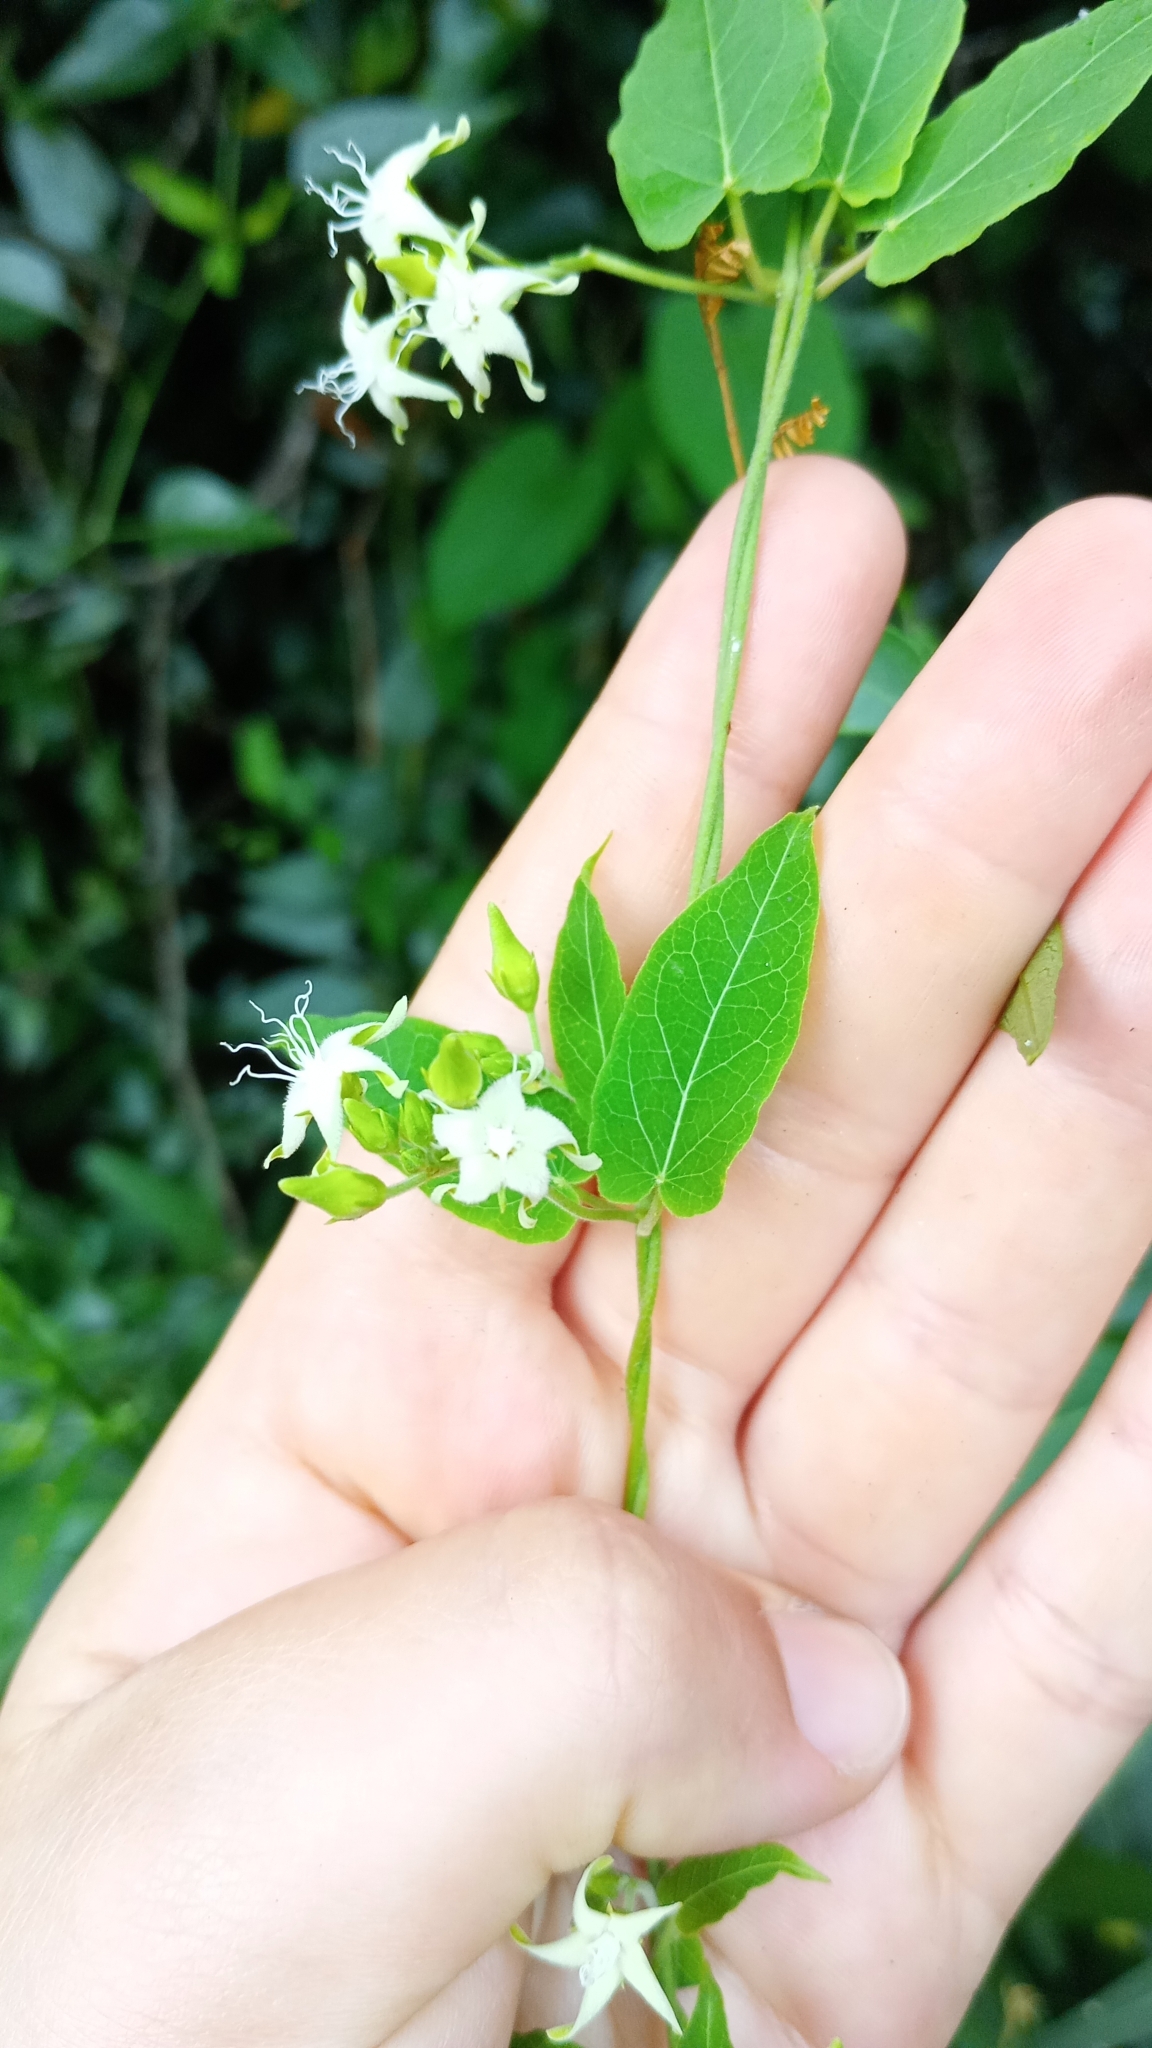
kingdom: Plantae
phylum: Tracheophyta
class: Magnoliopsida
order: Gentianales
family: Apocynaceae
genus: Oxypetalum
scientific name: Oxypetalum sylvestre
